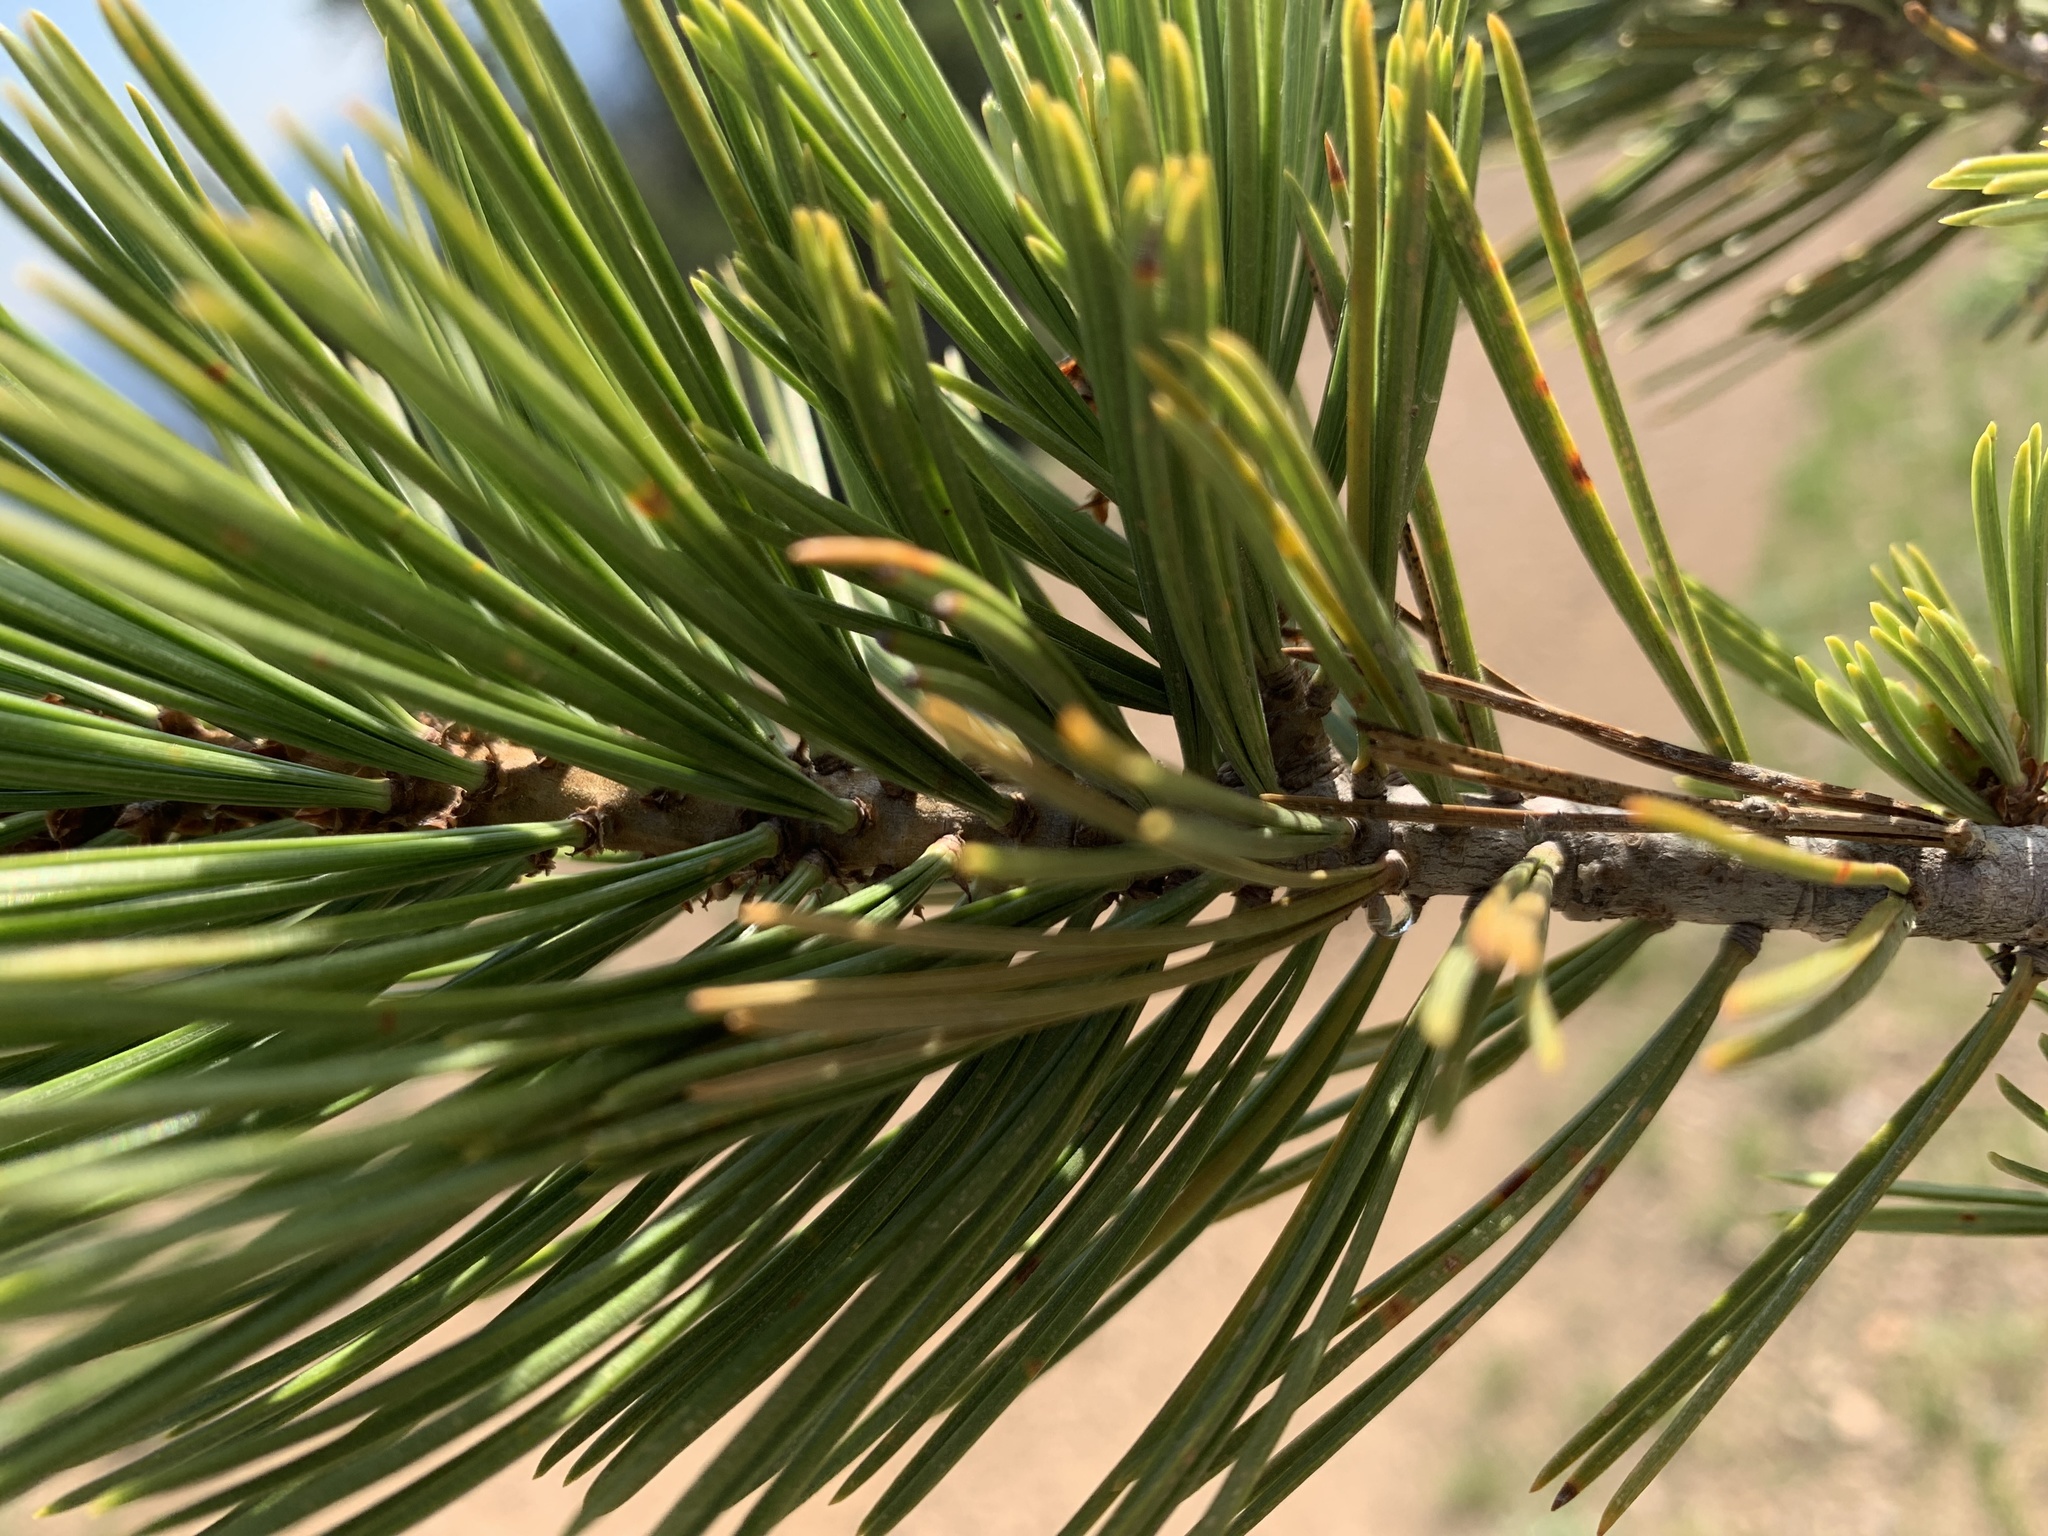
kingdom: Plantae
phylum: Tracheophyta
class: Pinopsida
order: Pinales
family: Pinaceae
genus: Pinus
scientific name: Pinus albicaulis
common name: Whitebark pine
